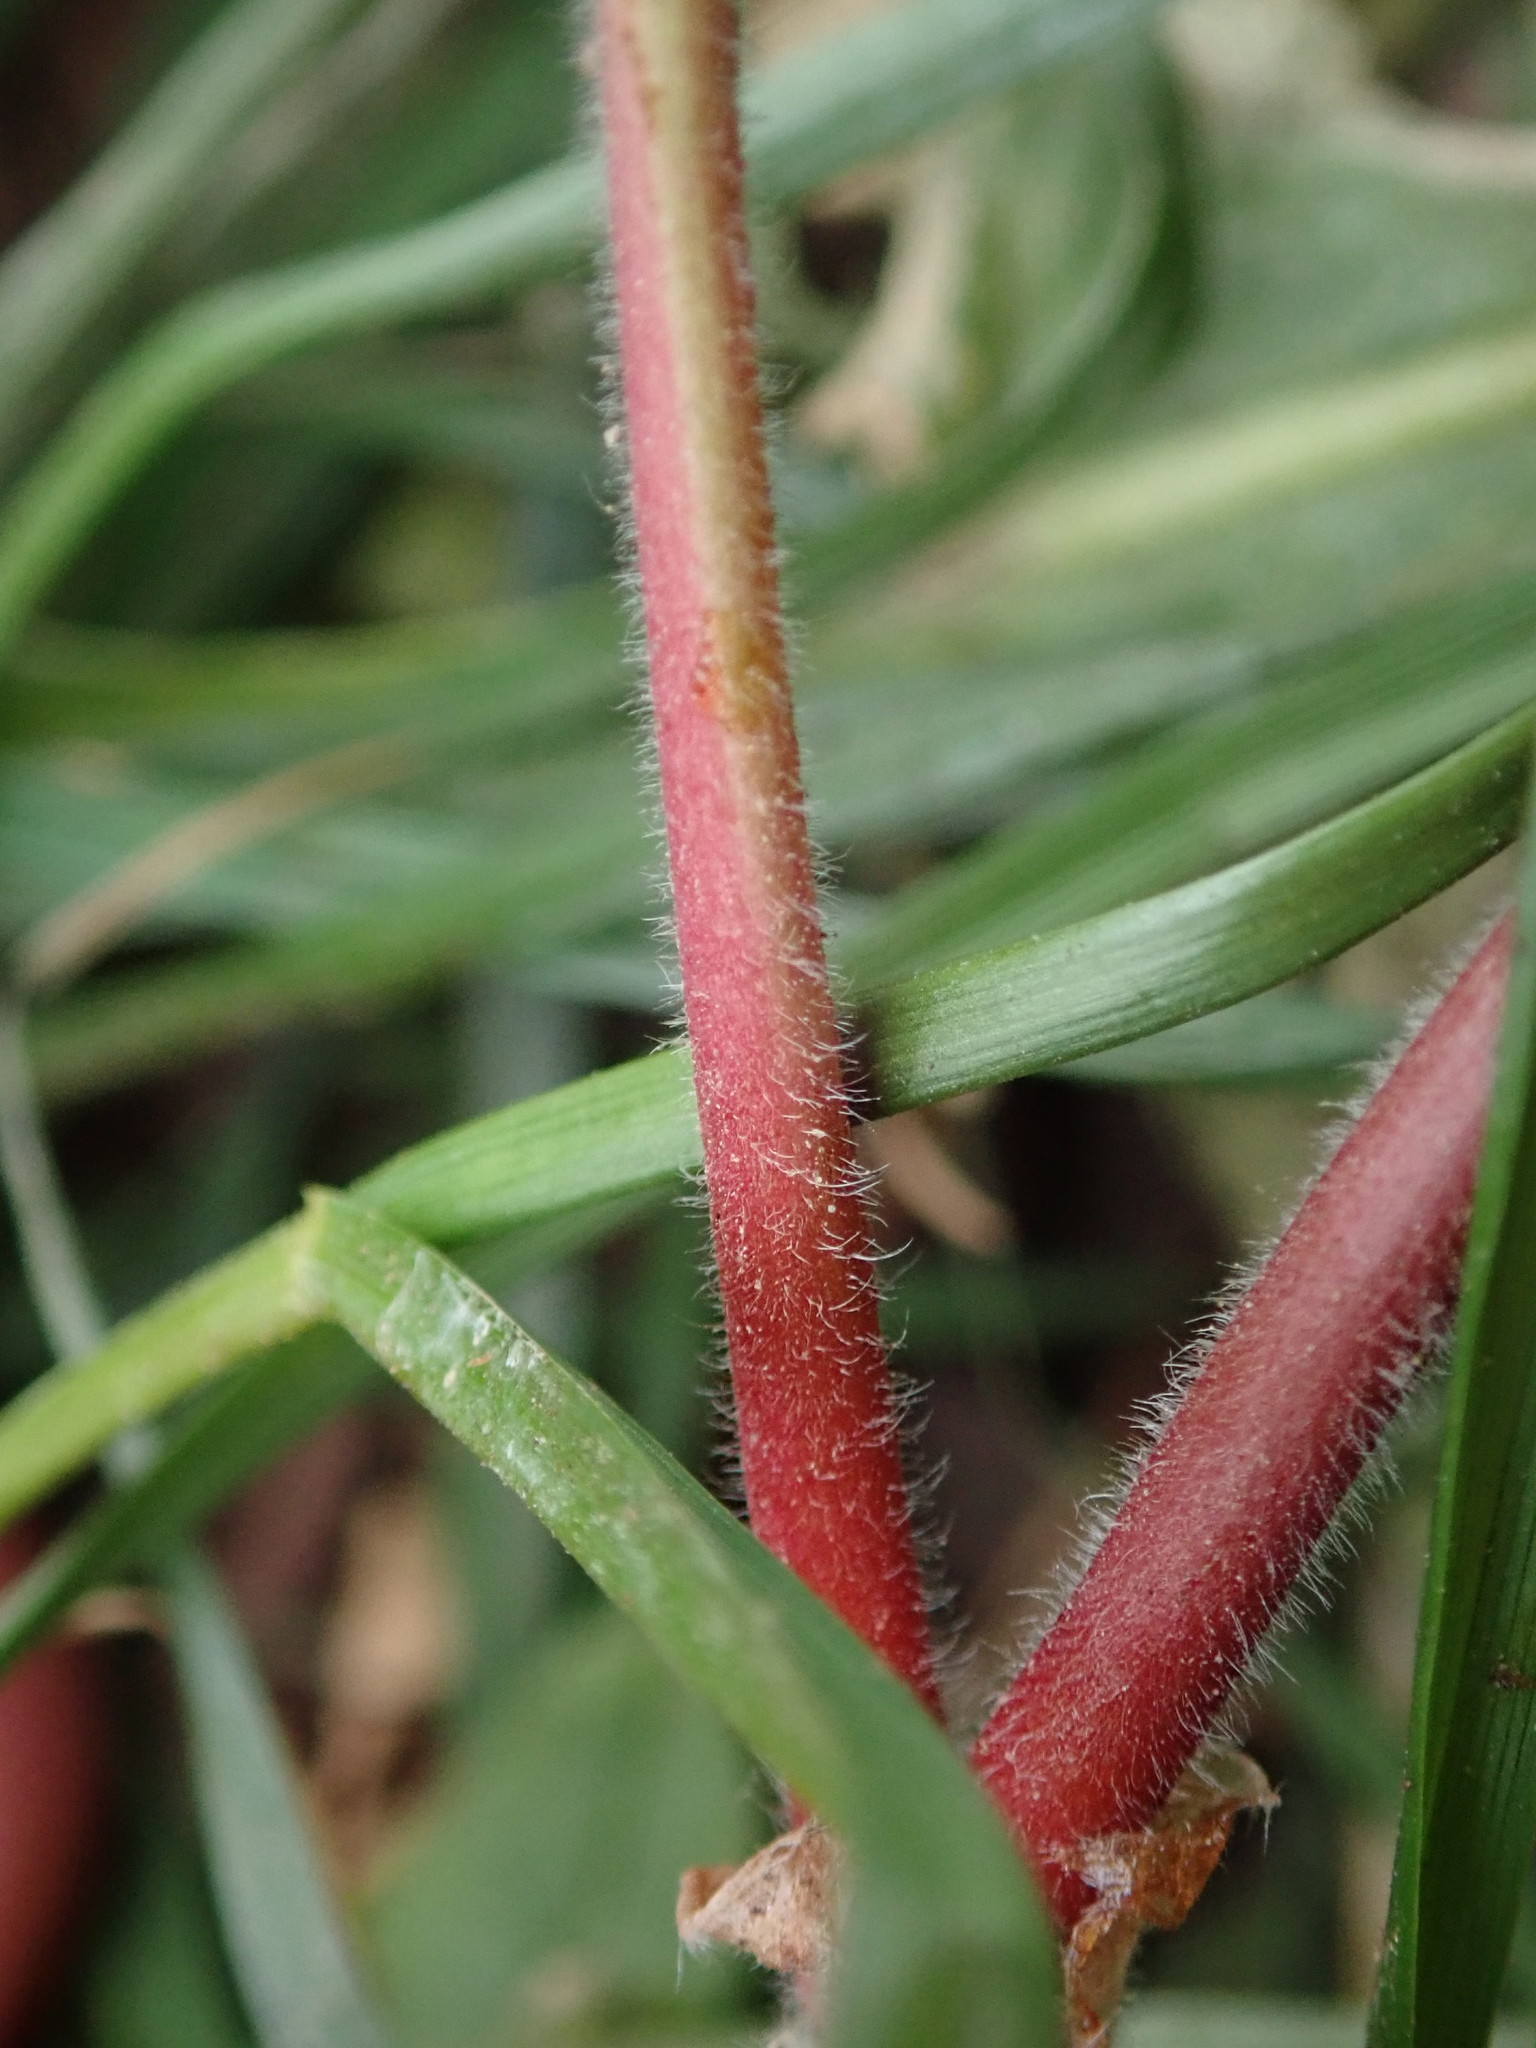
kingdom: Plantae
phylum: Tracheophyta
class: Magnoliopsida
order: Geraniales
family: Geraniaceae
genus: Geranium
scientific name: Geranium molle
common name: Dove's-foot crane's-bill
